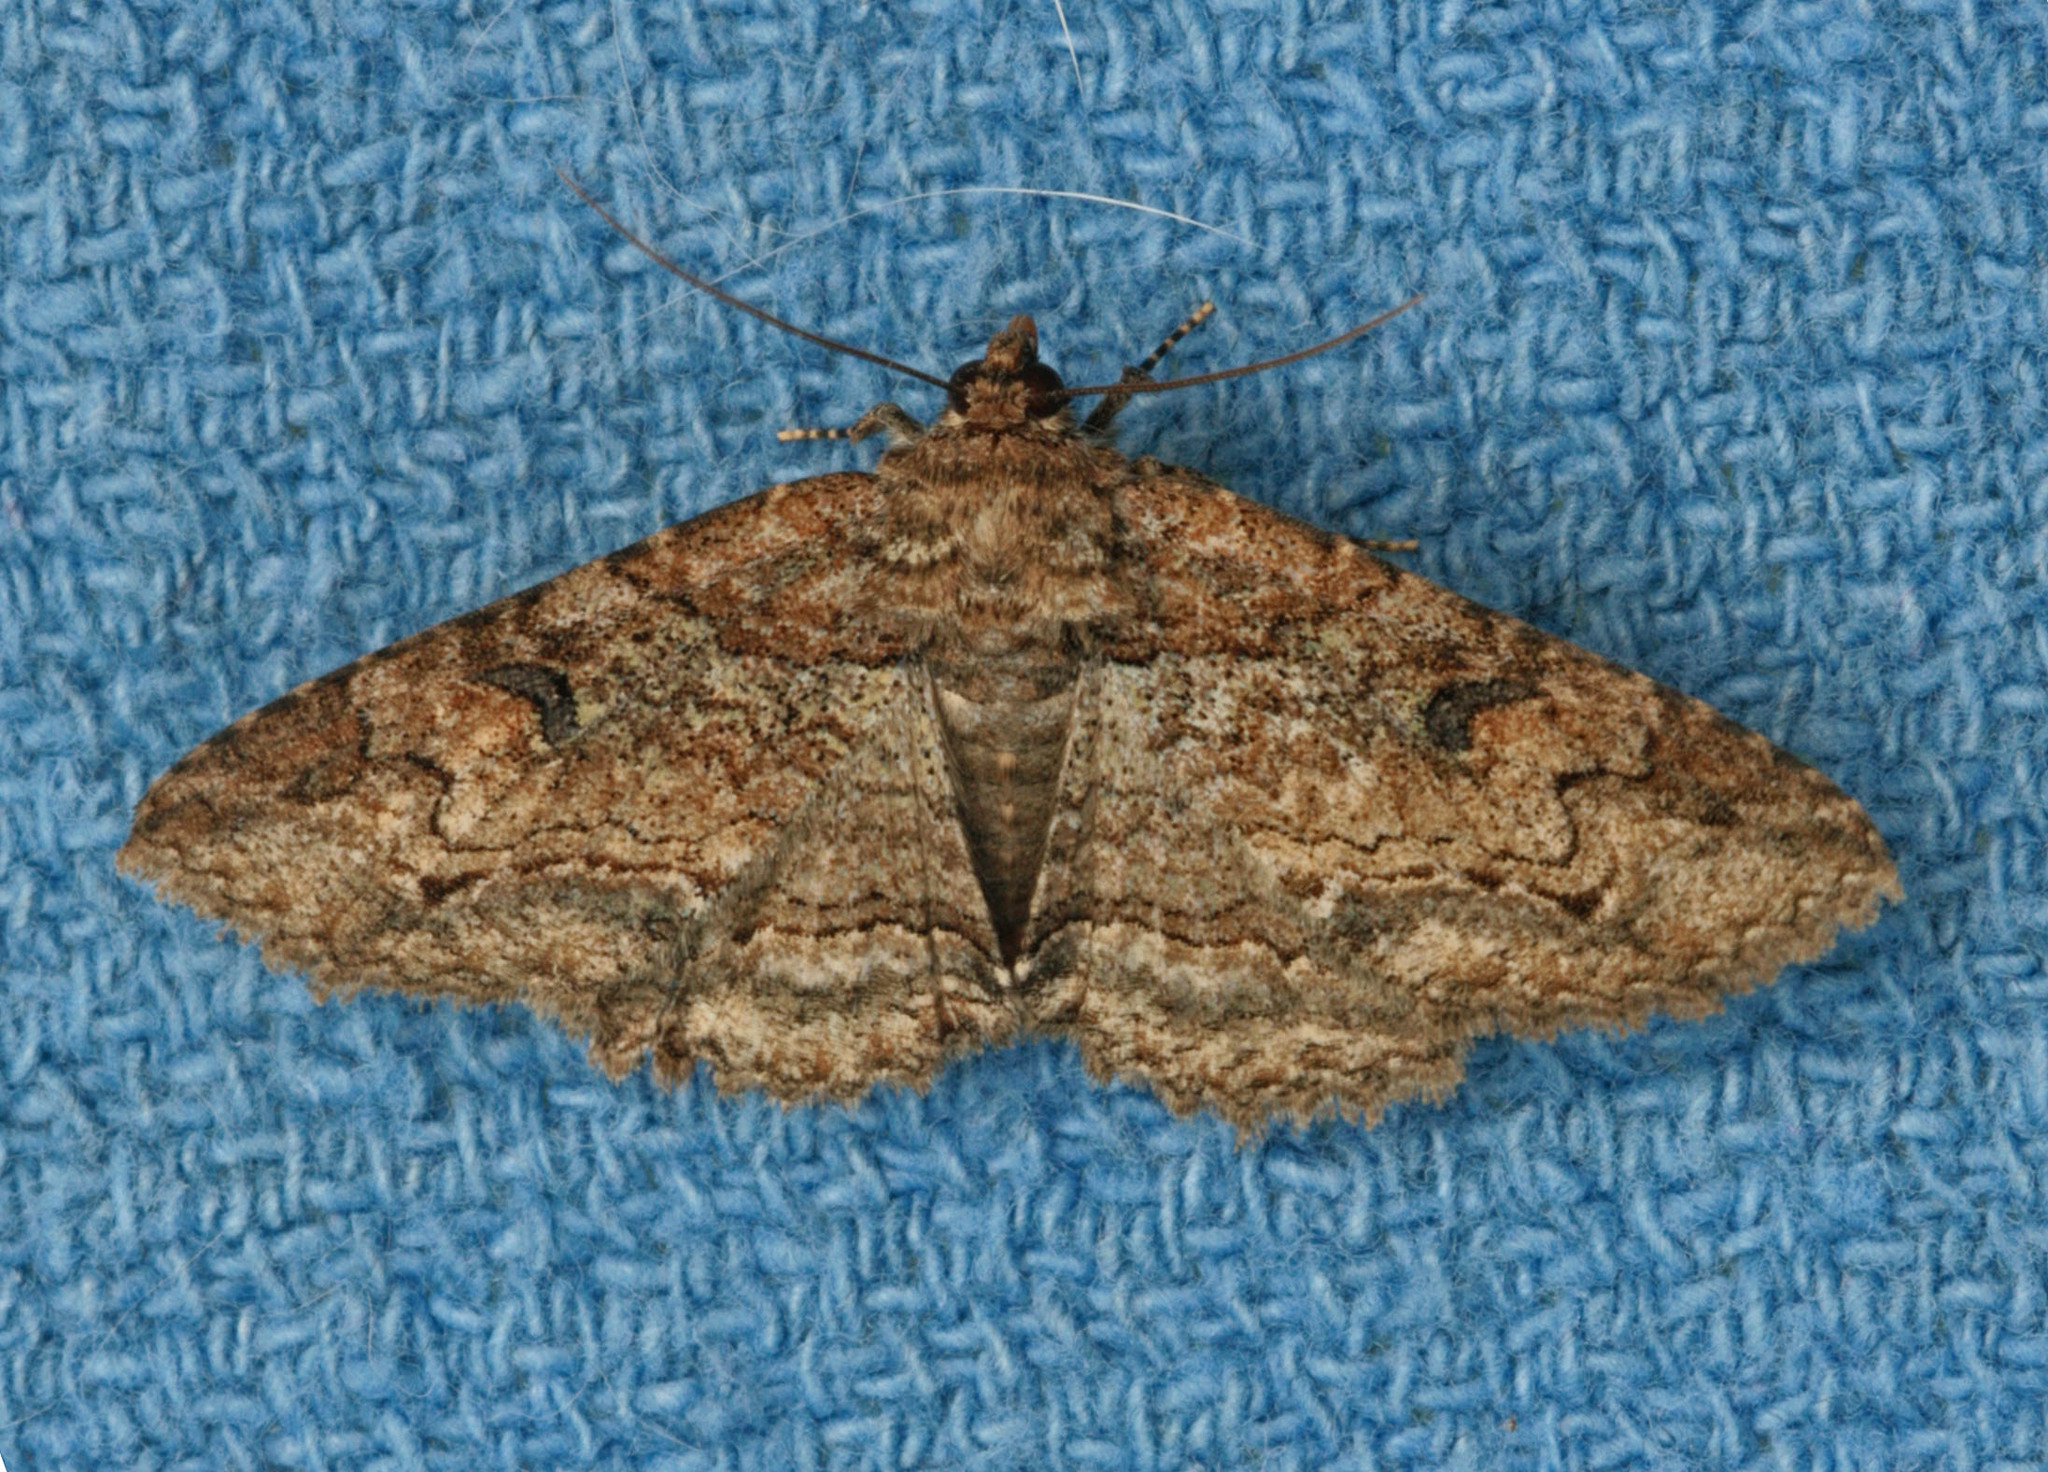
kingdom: Animalia
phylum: Arthropoda
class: Insecta
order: Lepidoptera
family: Erebidae
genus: Zale
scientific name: Zale galbanata
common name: Maple zale
